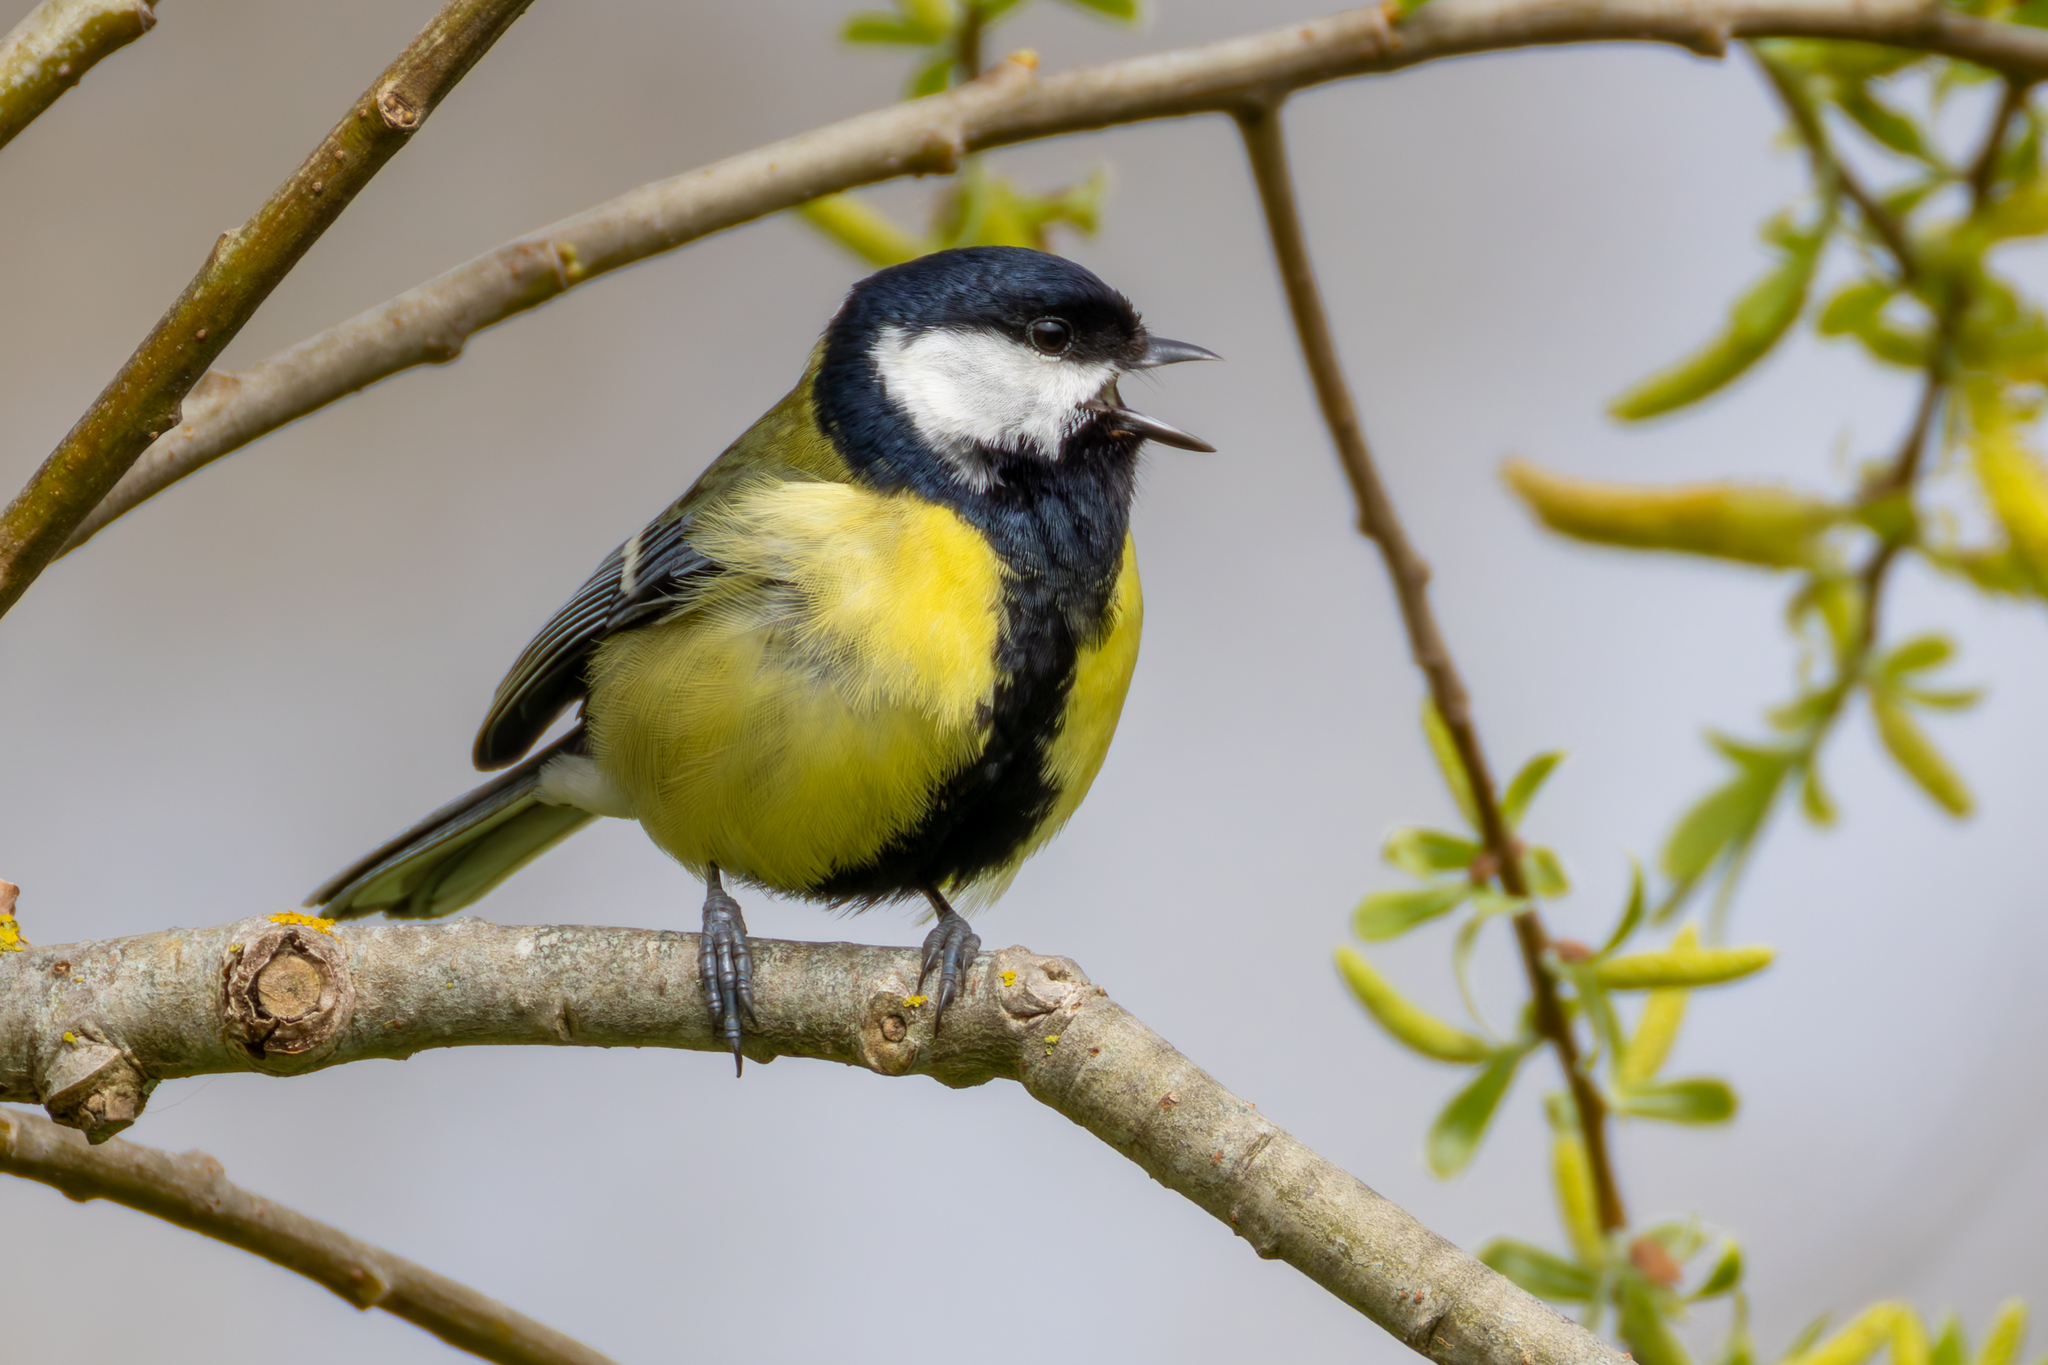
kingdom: Animalia
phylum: Chordata
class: Aves
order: Passeriformes
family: Paridae
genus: Parus
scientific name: Parus major
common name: Great tit
